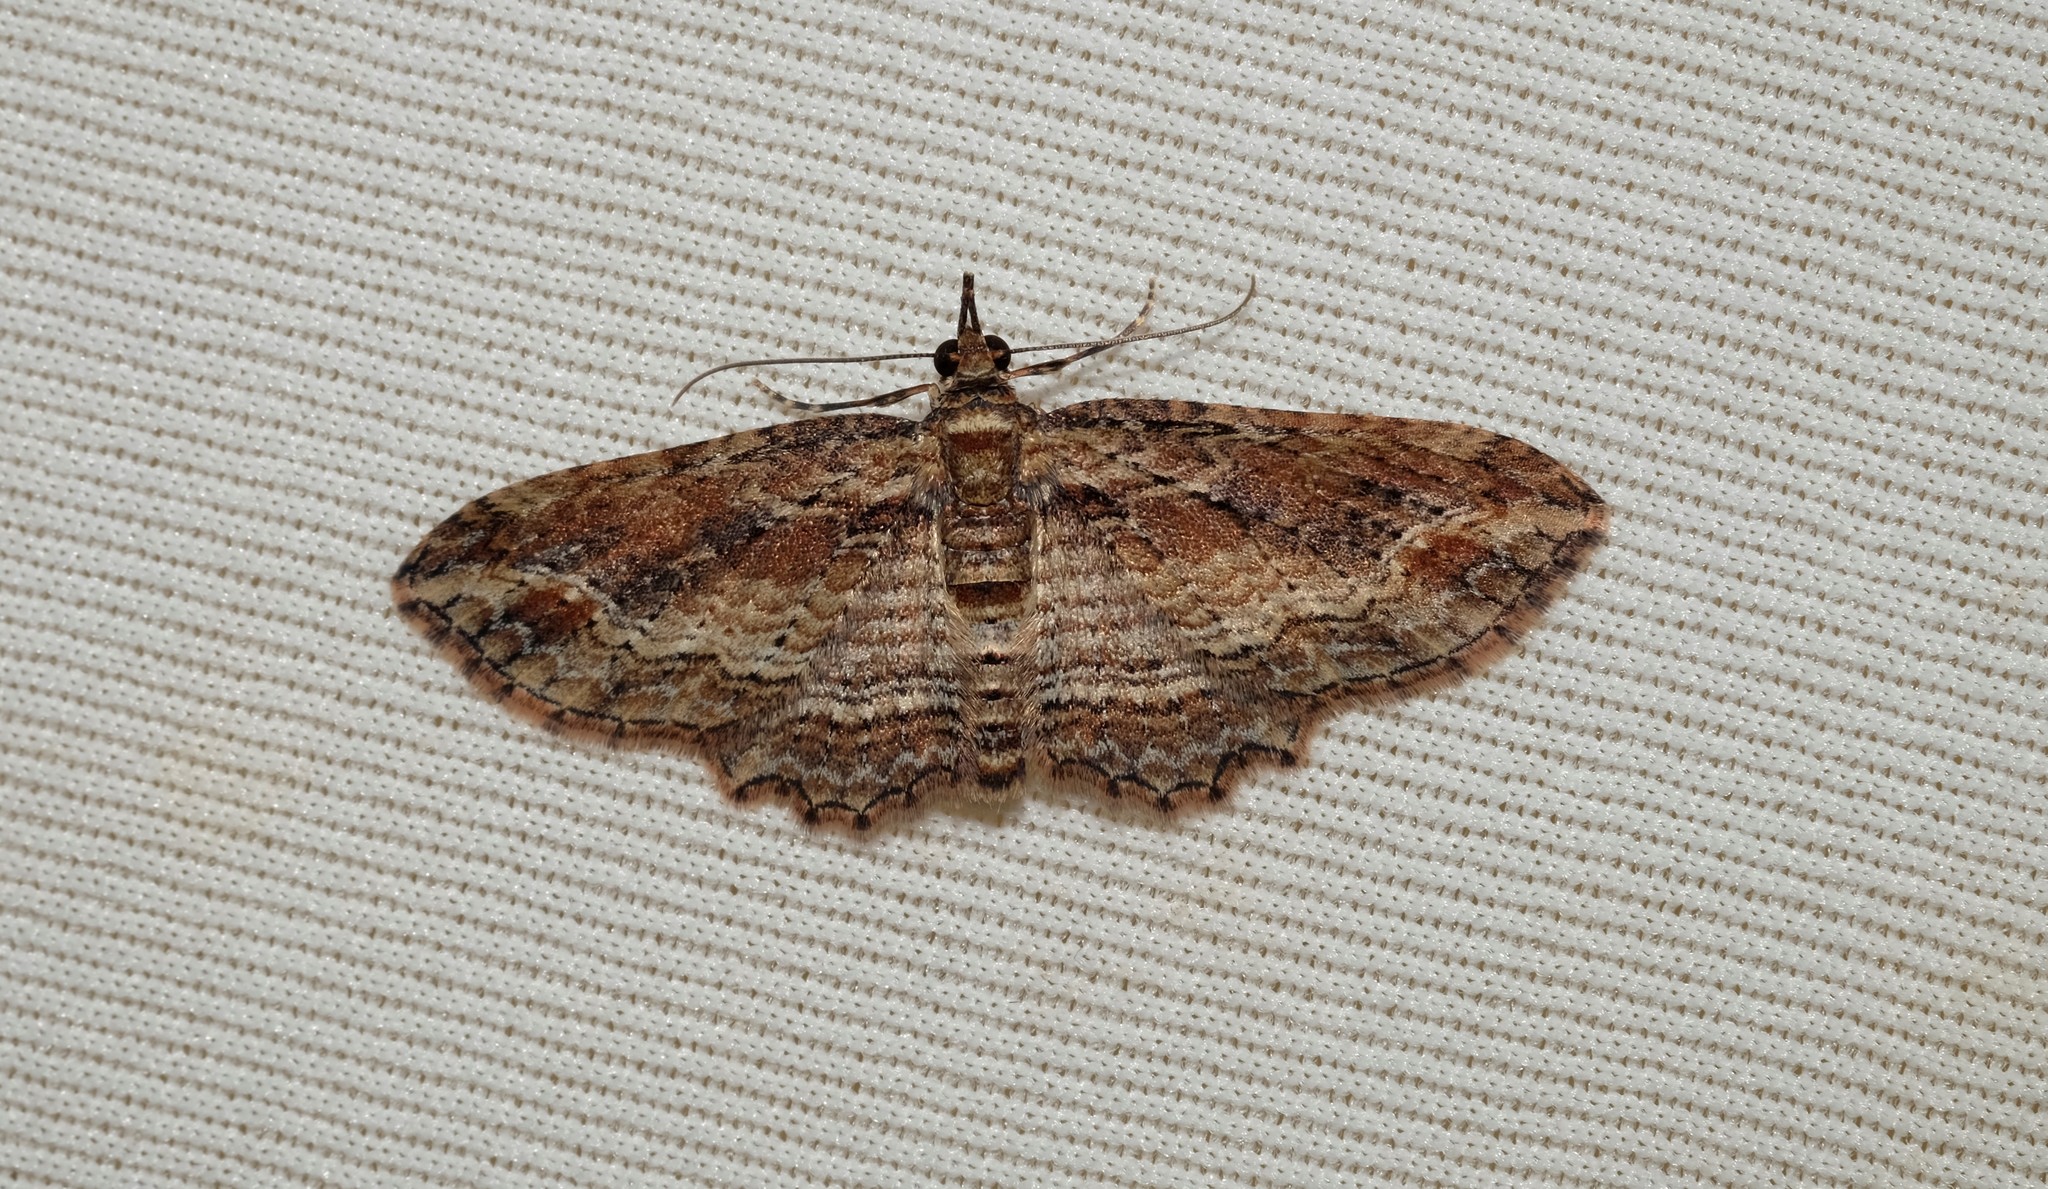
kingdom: Animalia
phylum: Arthropoda
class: Insecta
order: Lepidoptera
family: Geometridae
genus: Chloroclystis
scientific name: Chloroclystis filata
